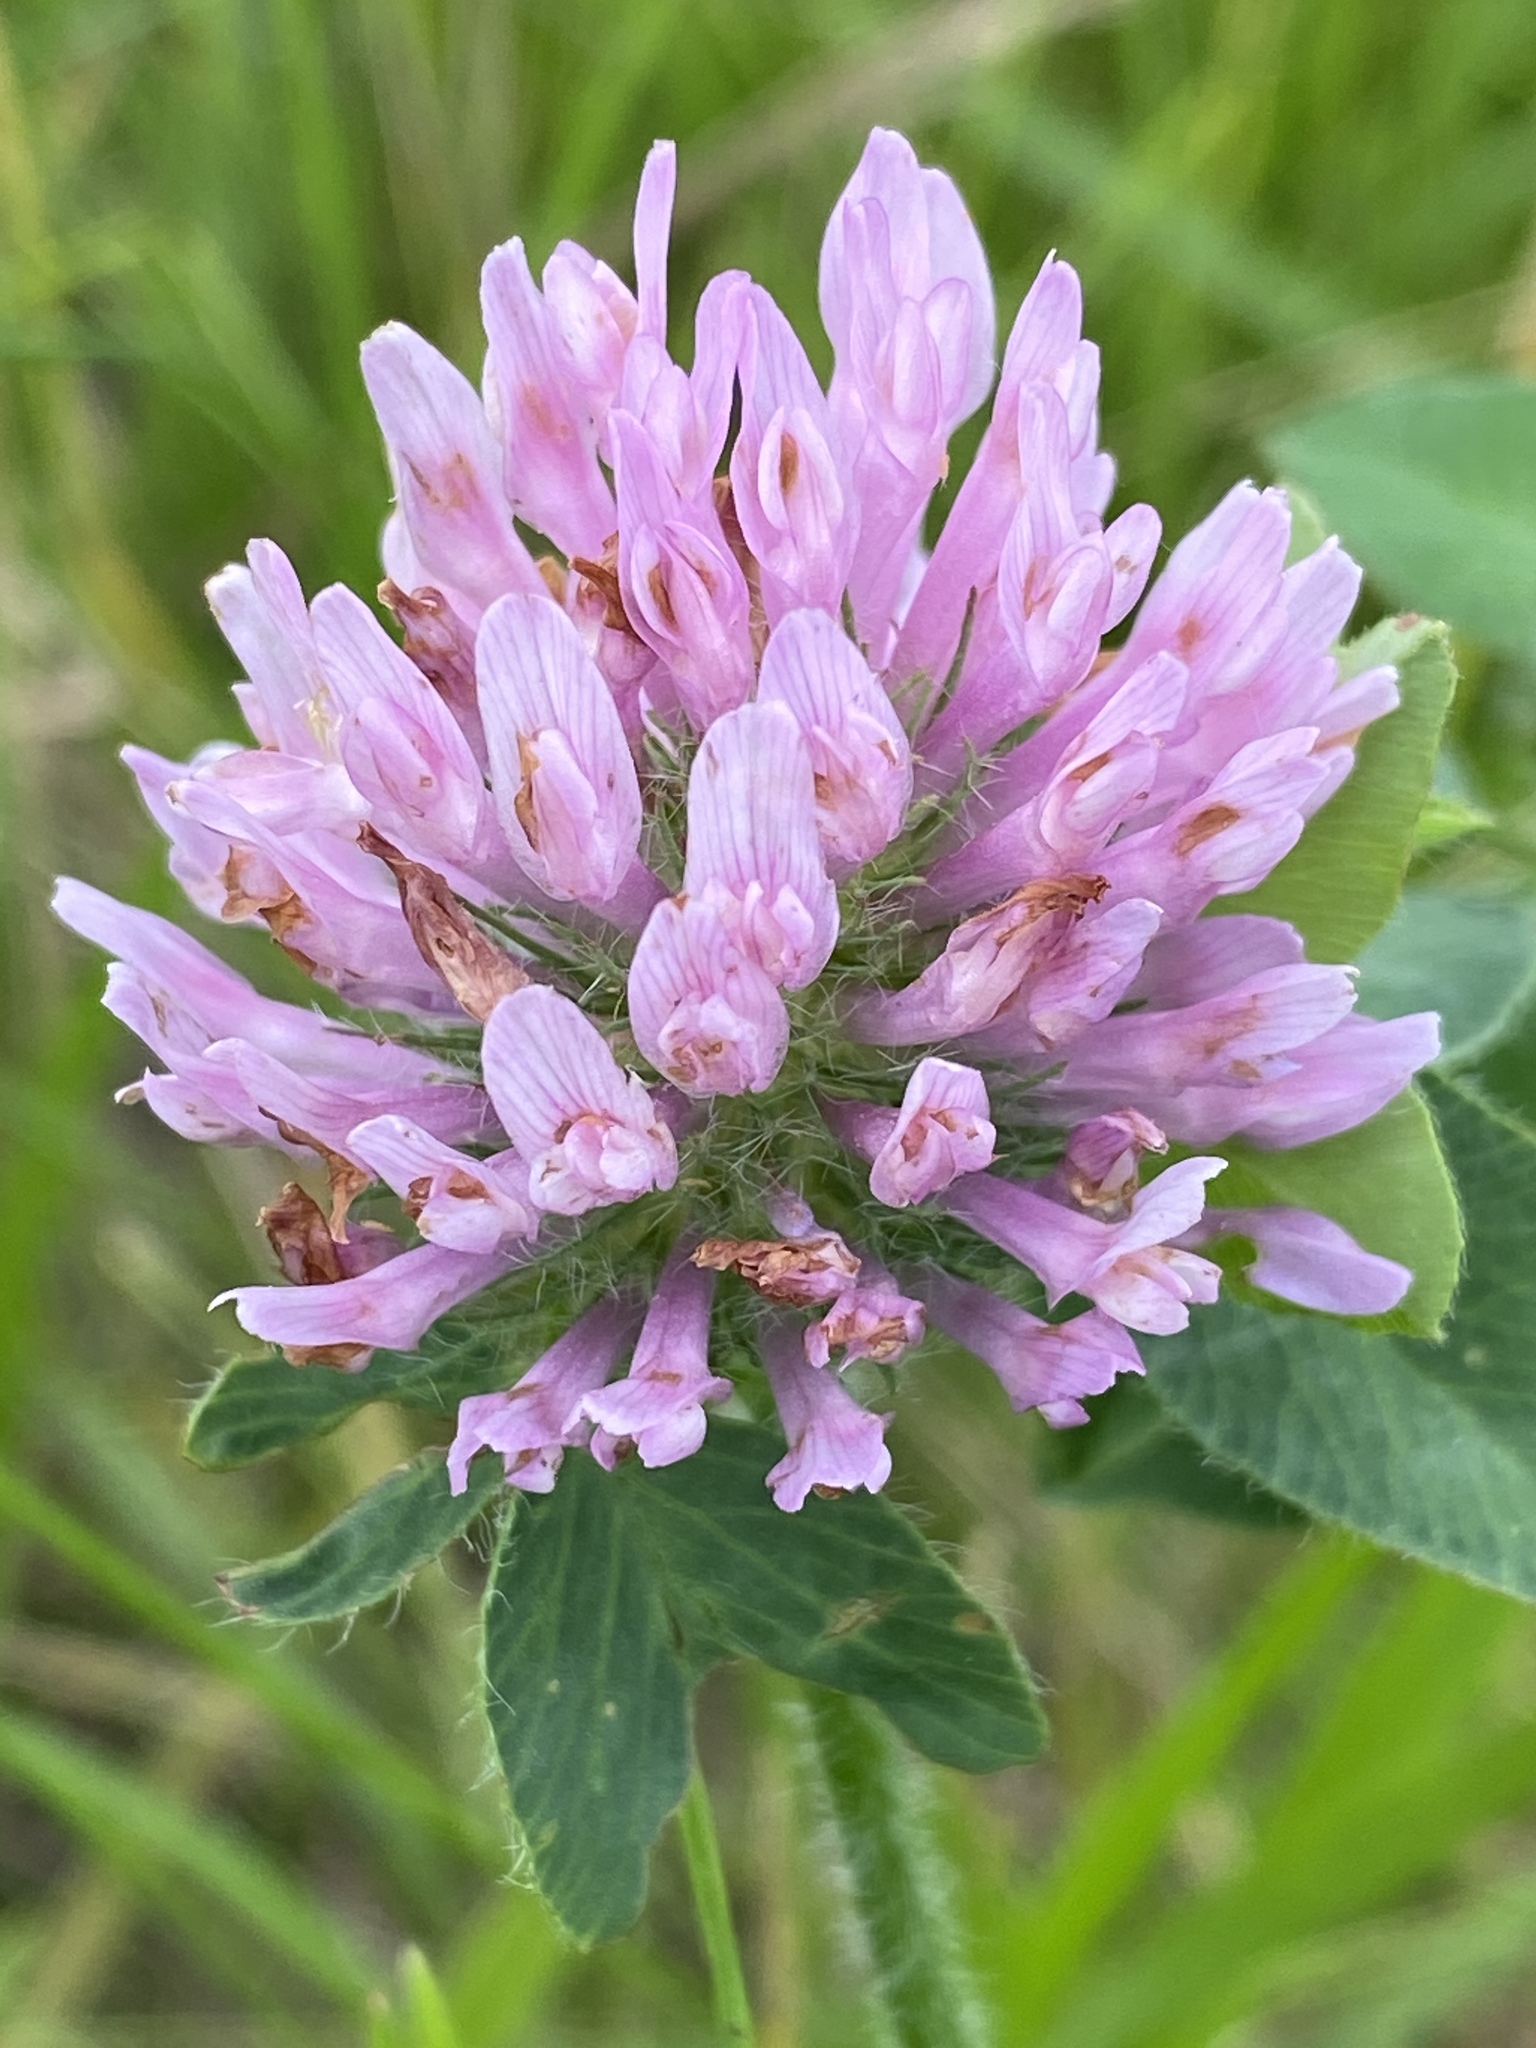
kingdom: Plantae
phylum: Tracheophyta
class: Magnoliopsida
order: Fabales
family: Fabaceae
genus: Trifolium
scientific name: Trifolium pratense
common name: Red clover
